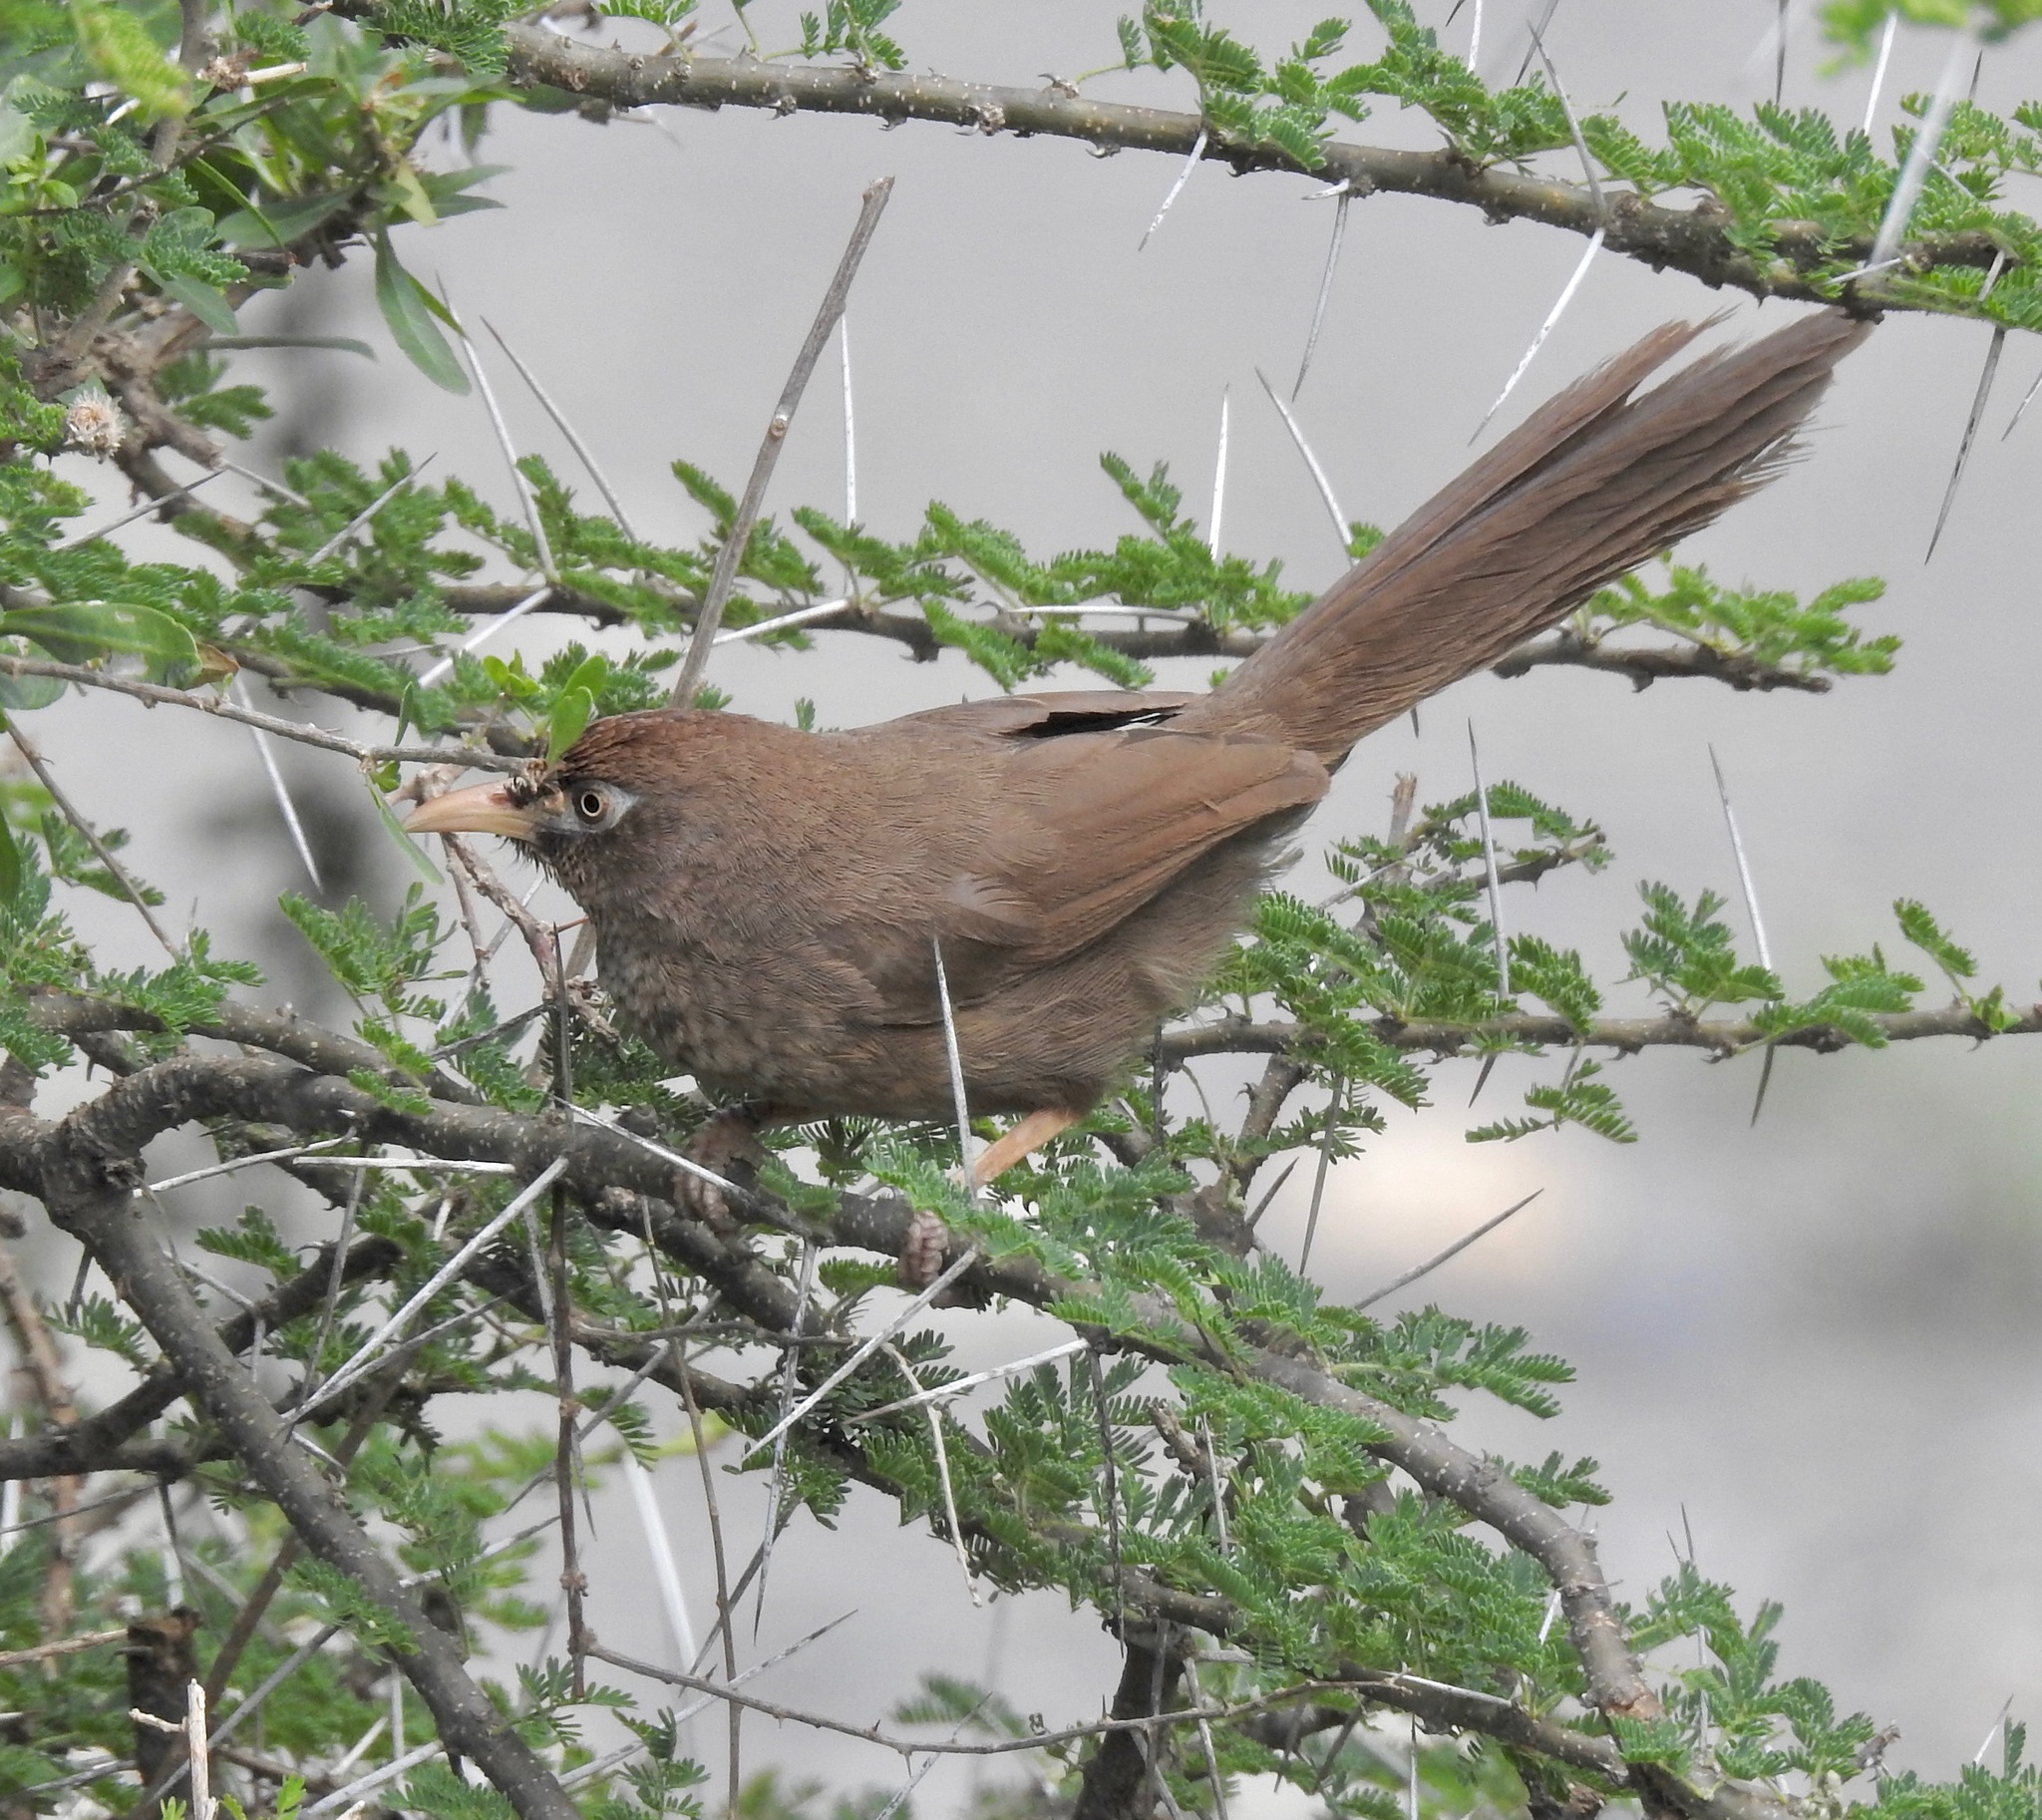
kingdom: Animalia
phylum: Chordata
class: Aves
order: Passeriformes
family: Leiothrichidae
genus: Turdoides
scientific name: Turdoides aylmeri
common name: Scaly chatterer
